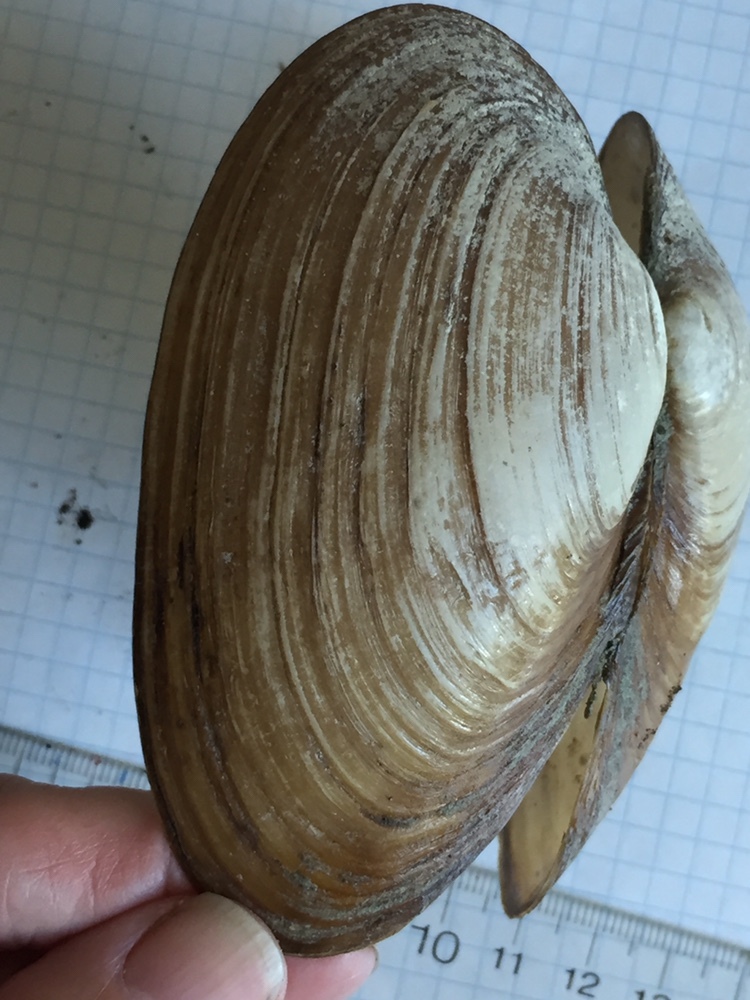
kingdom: Animalia
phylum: Mollusca
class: Bivalvia
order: Unionida
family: Unionidae
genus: Pyganodon
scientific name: Pyganodon grandis
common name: Giant floater
